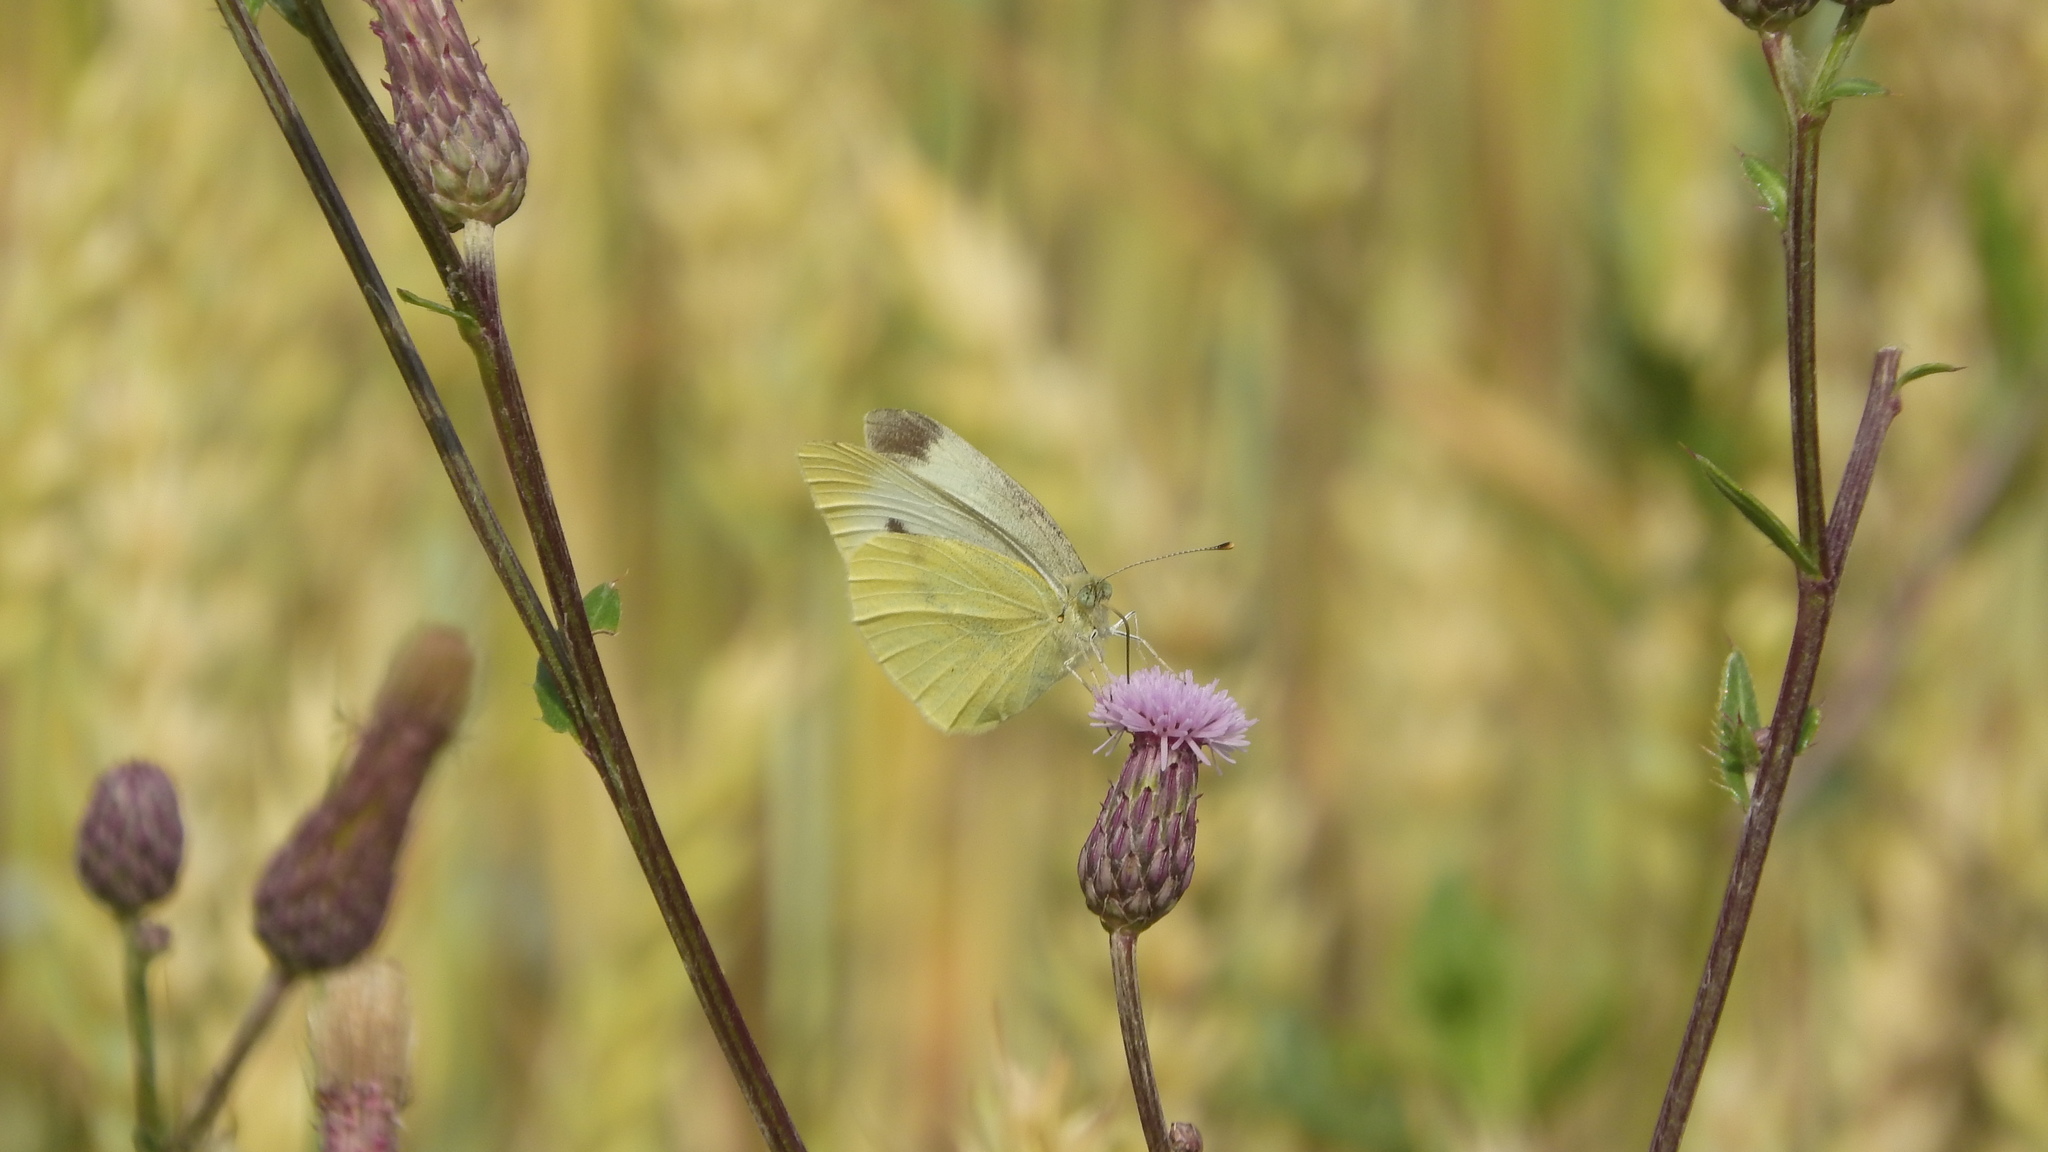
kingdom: Animalia
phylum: Arthropoda
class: Insecta
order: Lepidoptera
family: Pieridae
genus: Pieris
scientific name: Pieris rapae
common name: Small white
